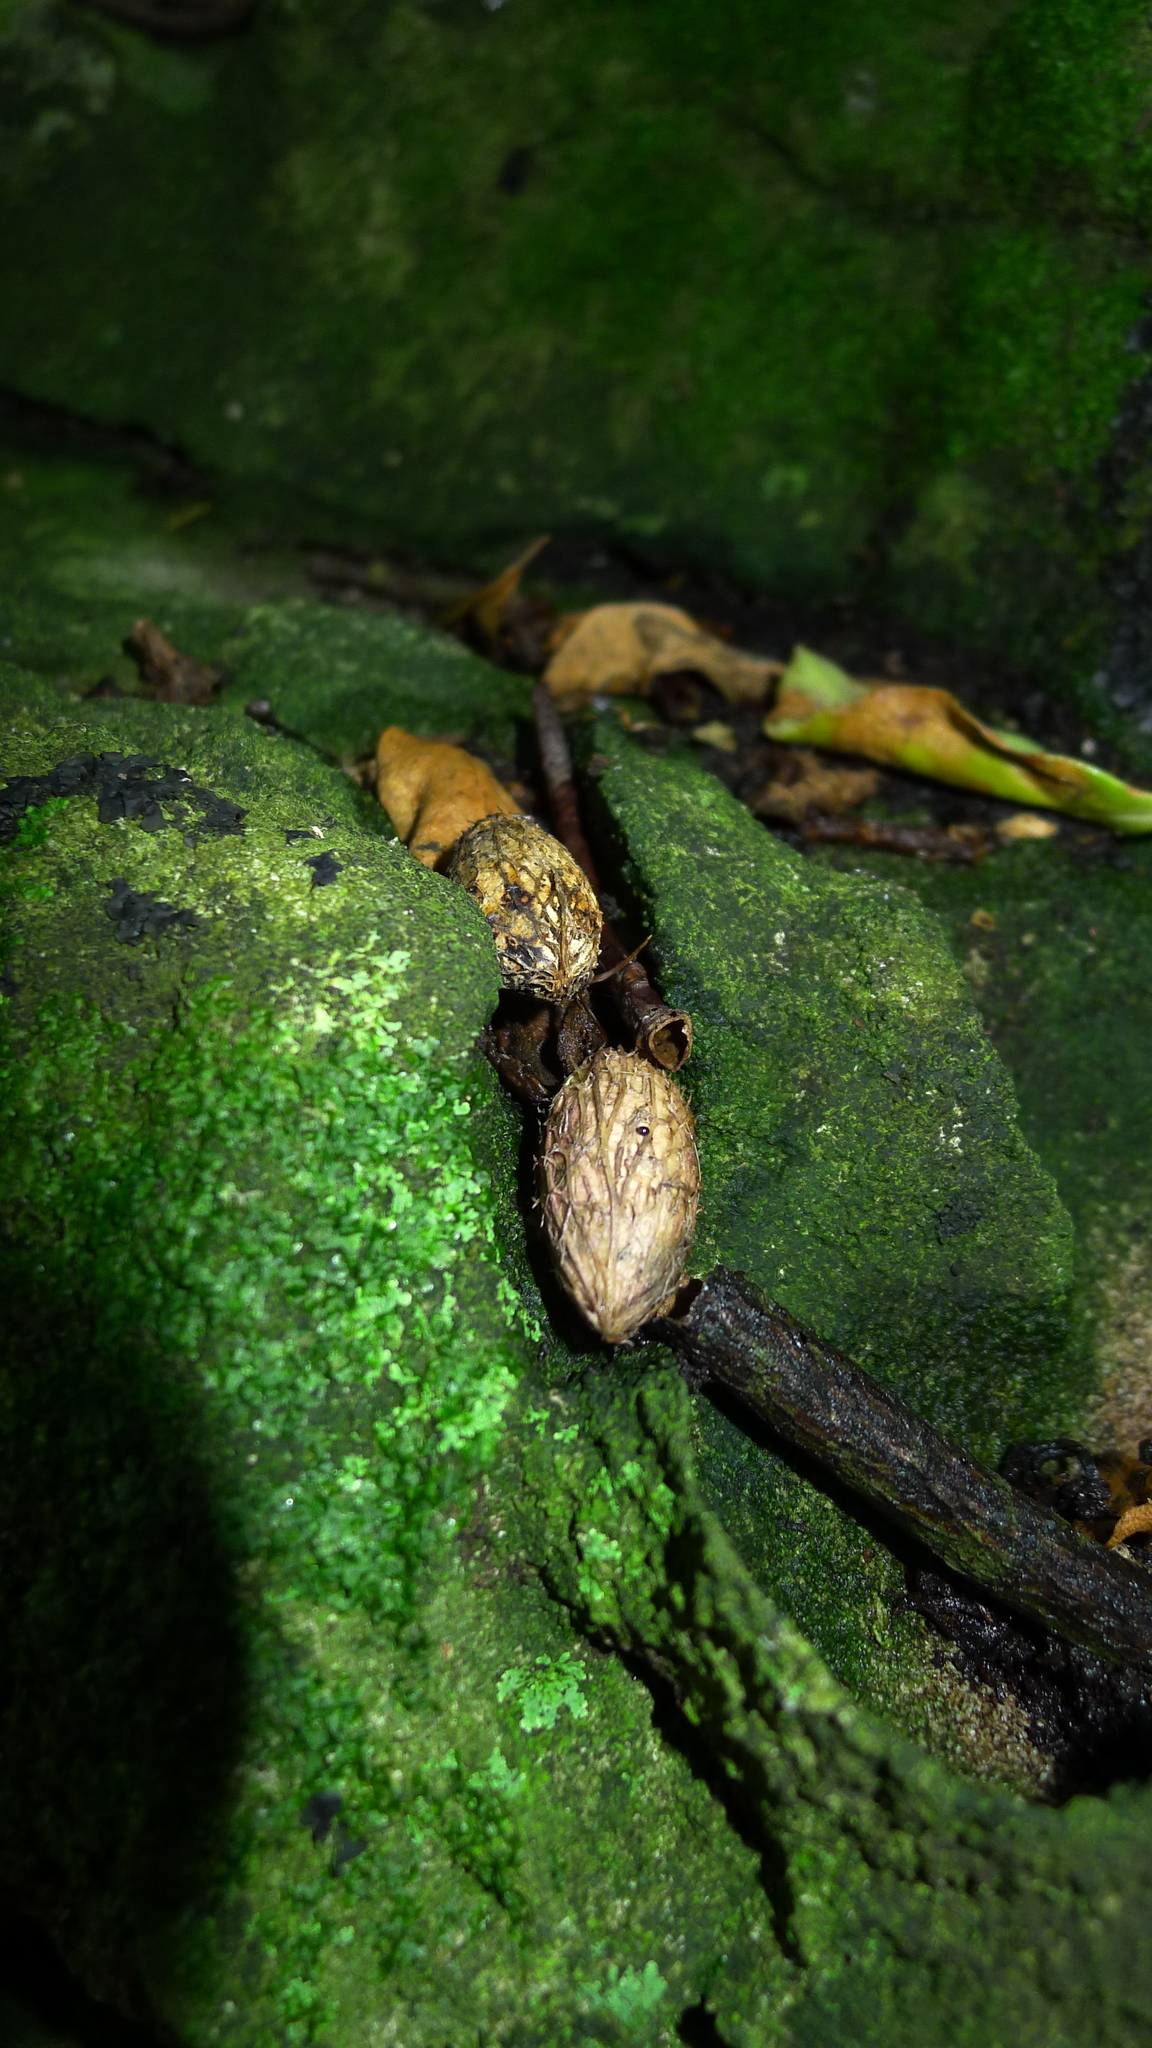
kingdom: Plantae
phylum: Tracheophyta
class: Magnoliopsida
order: Cucurbitales
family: Corynocarpaceae
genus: Corynocarpus
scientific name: Corynocarpus laevigatus
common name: New zealand laurel
